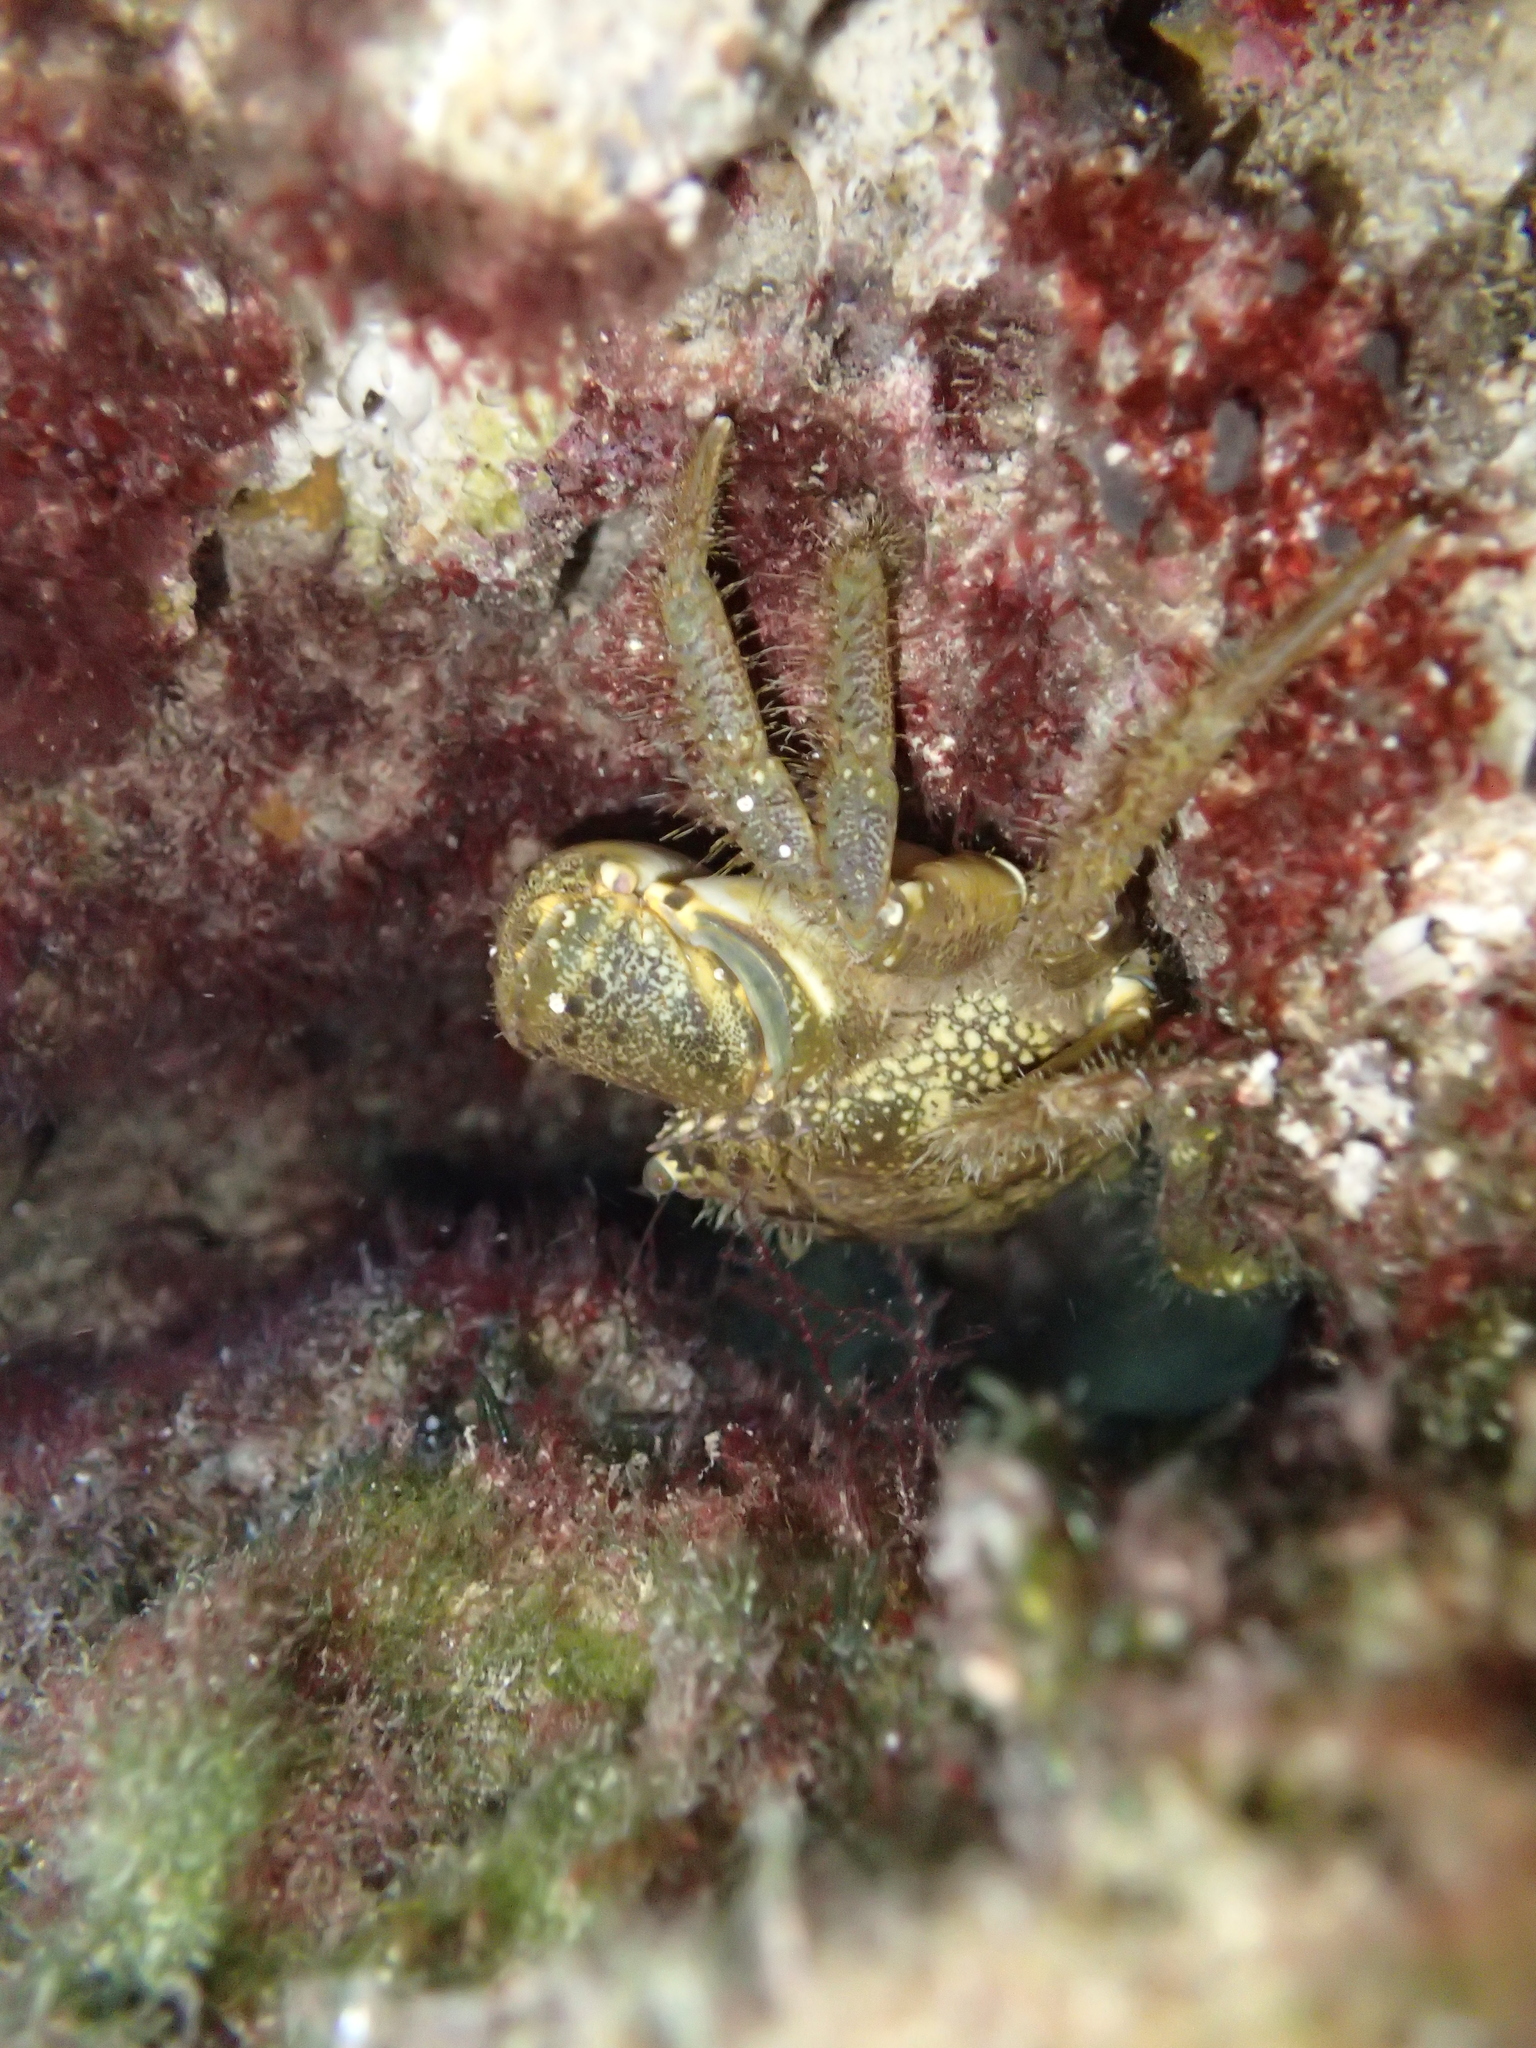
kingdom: Animalia
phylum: Arthropoda
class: Malacostraca
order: Decapoda
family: Eriphiidae
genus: Eriphia
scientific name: Eriphia verrucosa
